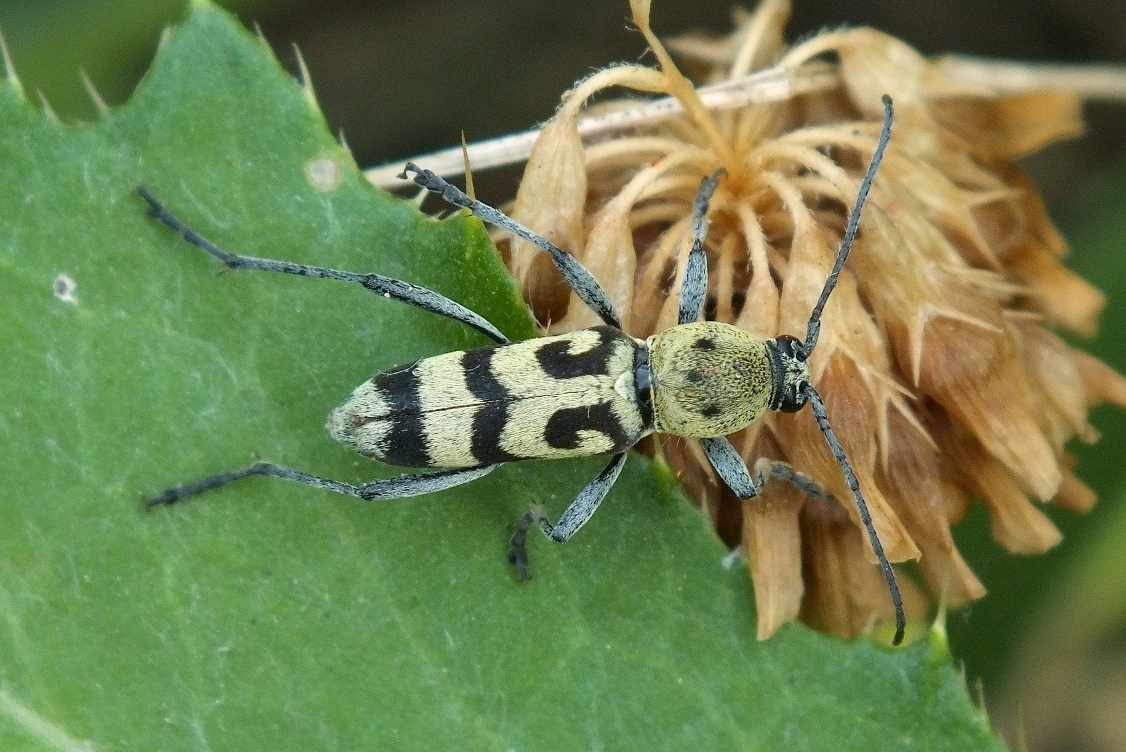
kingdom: Animalia
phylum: Arthropoda
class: Insecta
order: Coleoptera
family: Cerambycidae
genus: Chlorophorus
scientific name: Chlorophorus varius
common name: Grape wood borer
